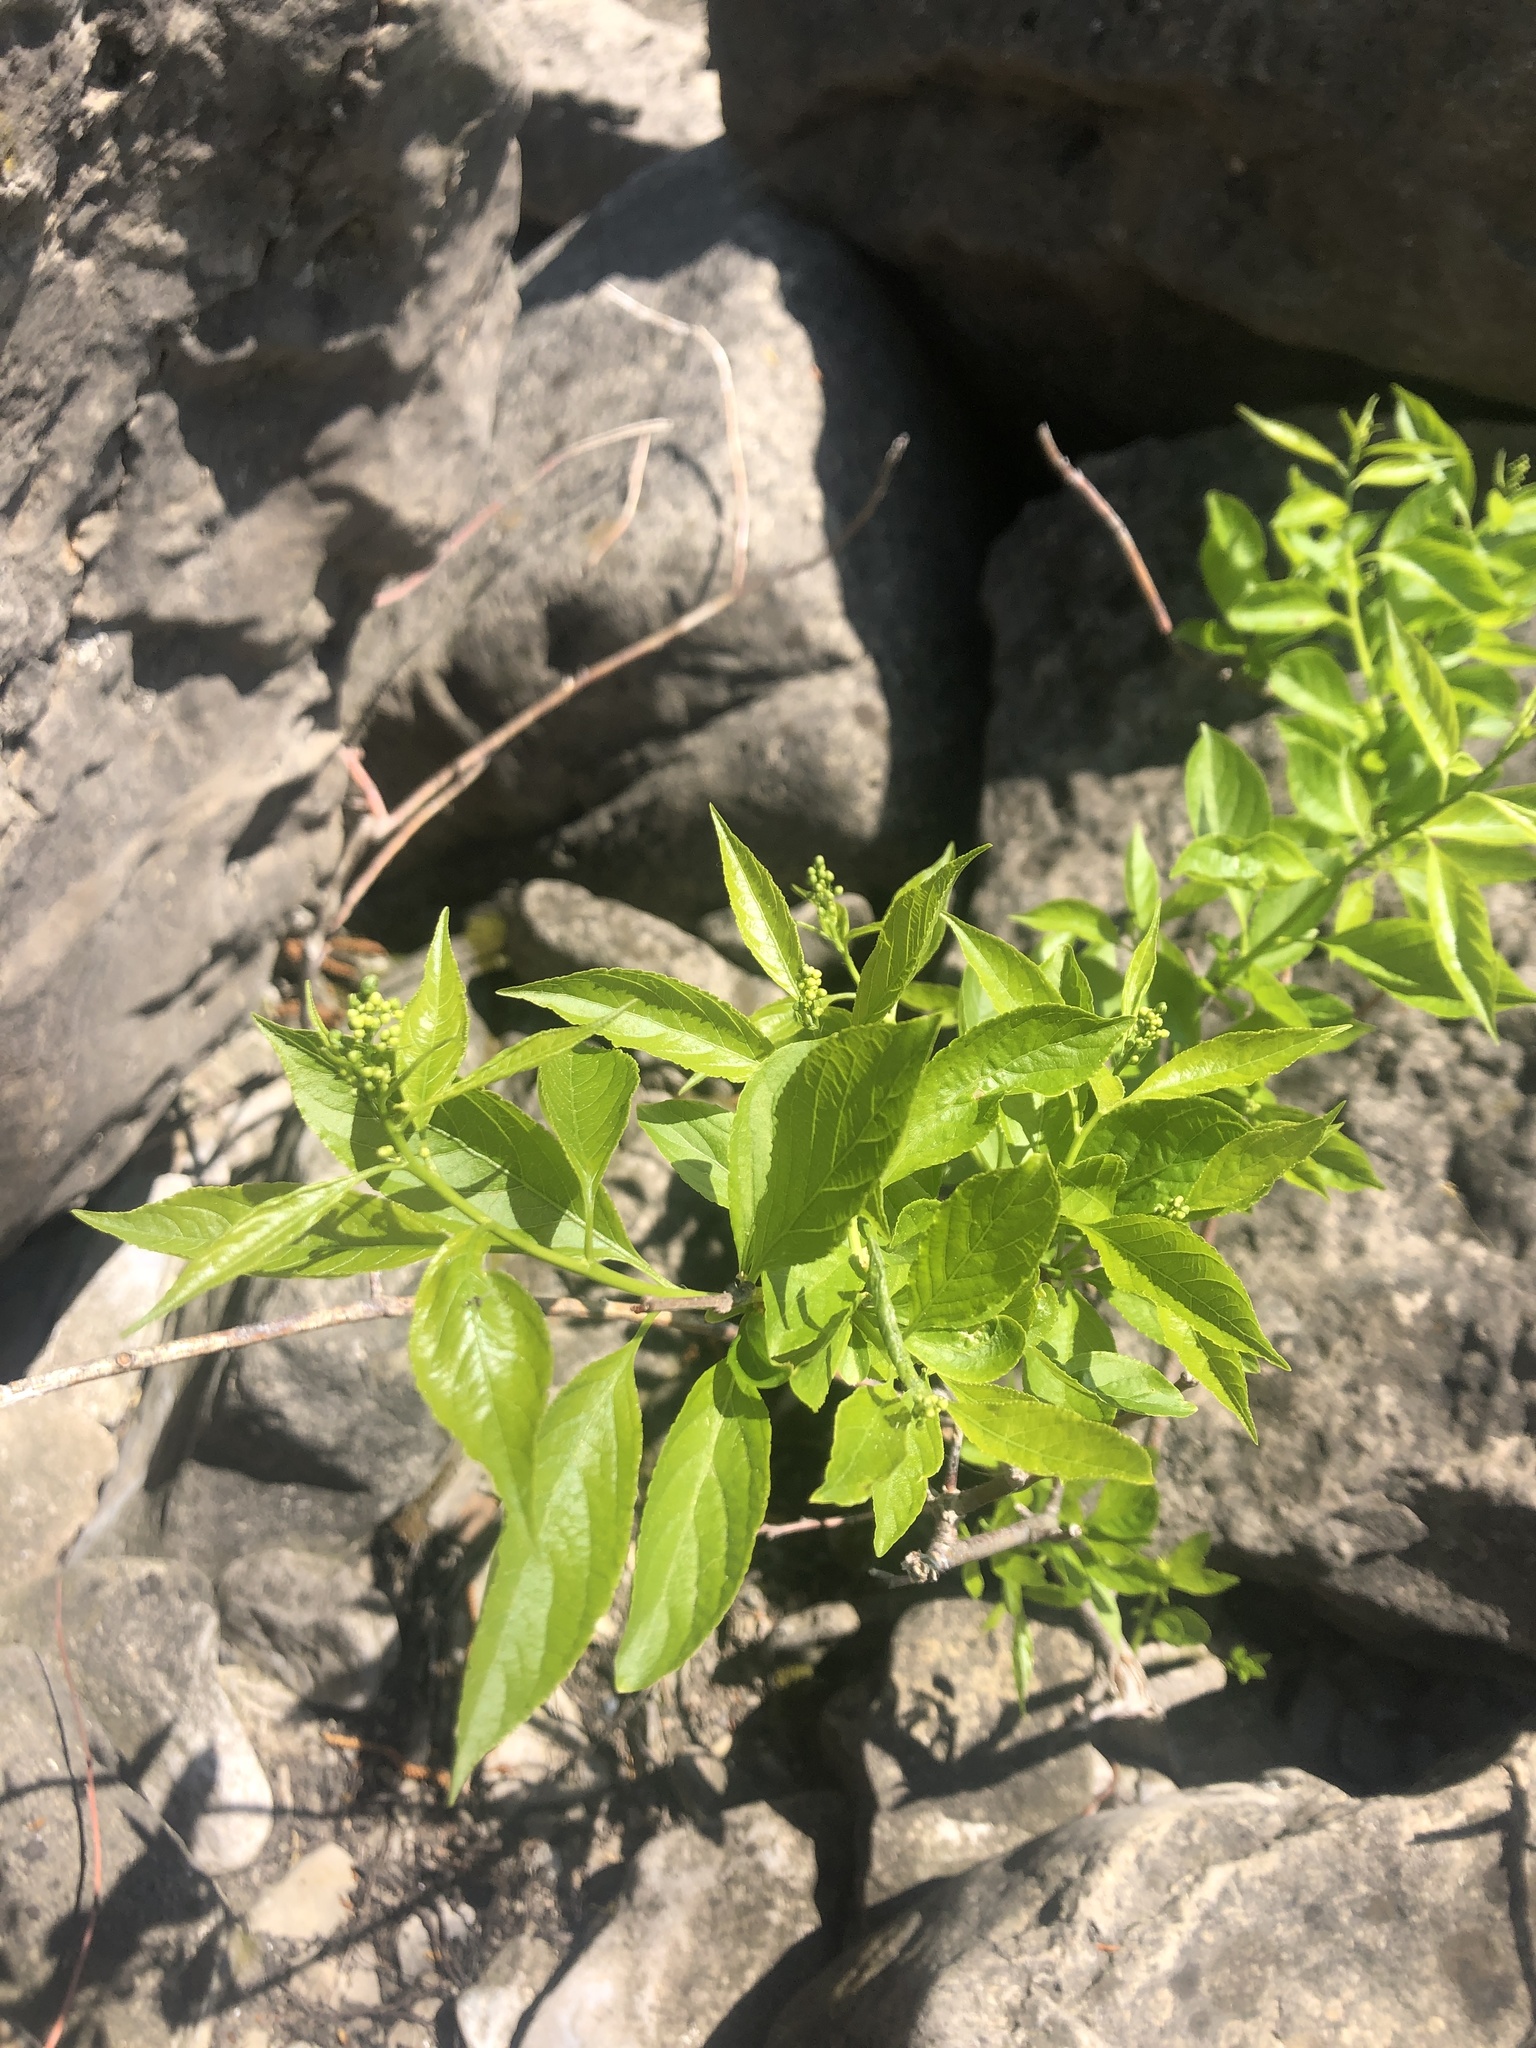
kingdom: Plantae
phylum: Tracheophyta
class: Magnoliopsida
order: Celastrales
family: Celastraceae
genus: Celastrus
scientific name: Celastrus scandens
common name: American bittersweet
